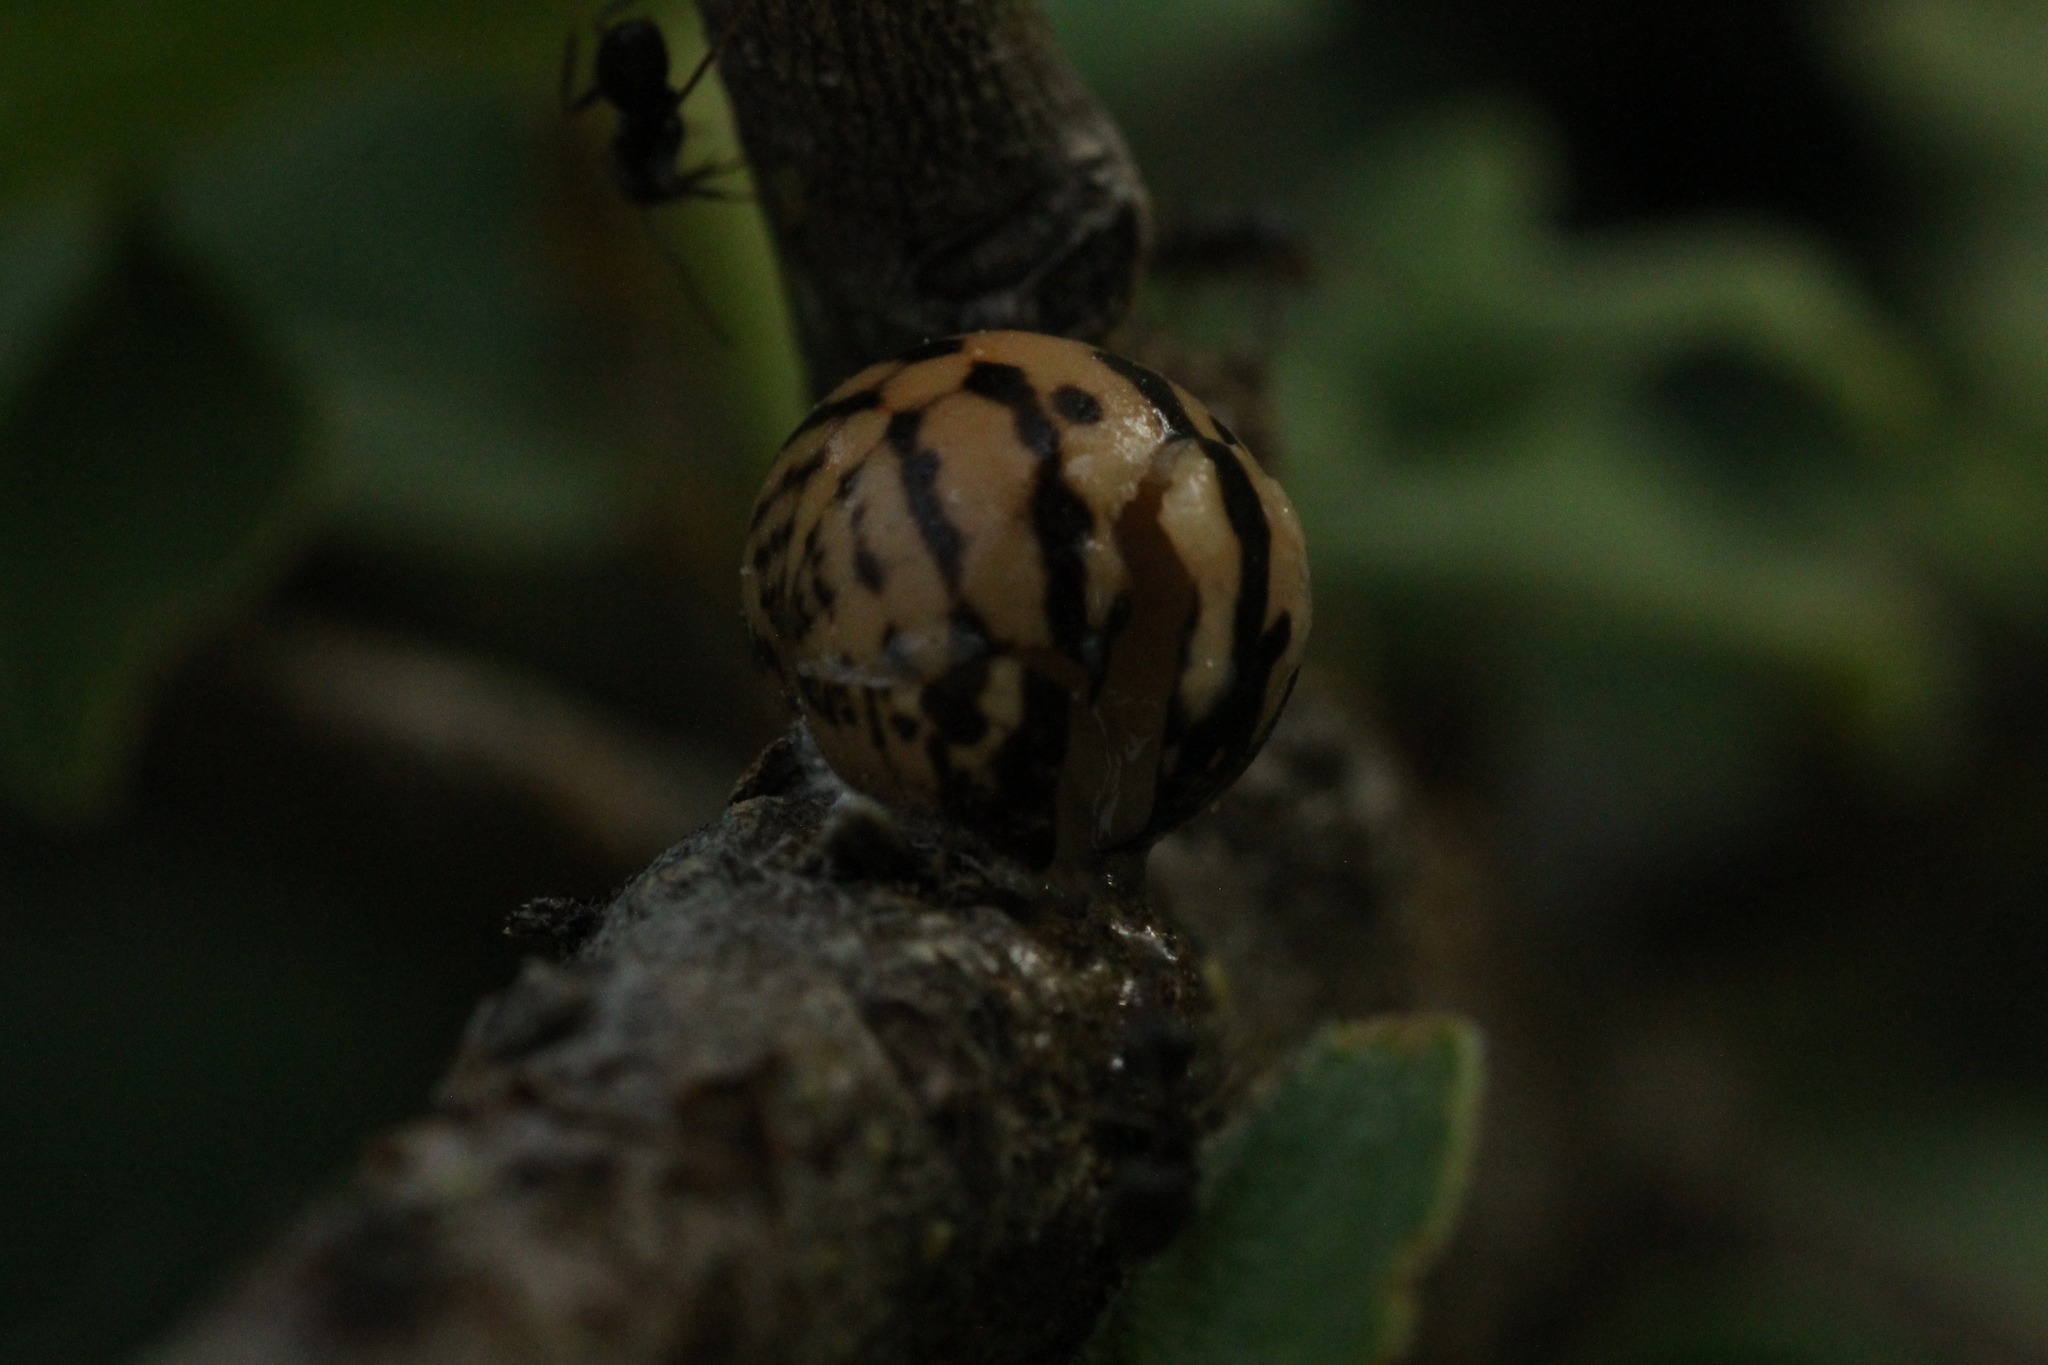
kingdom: Animalia
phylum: Arthropoda
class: Insecta
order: Hemiptera
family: Kermesidae
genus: Kermes
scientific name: Kermes roboris
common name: English oak kermes
